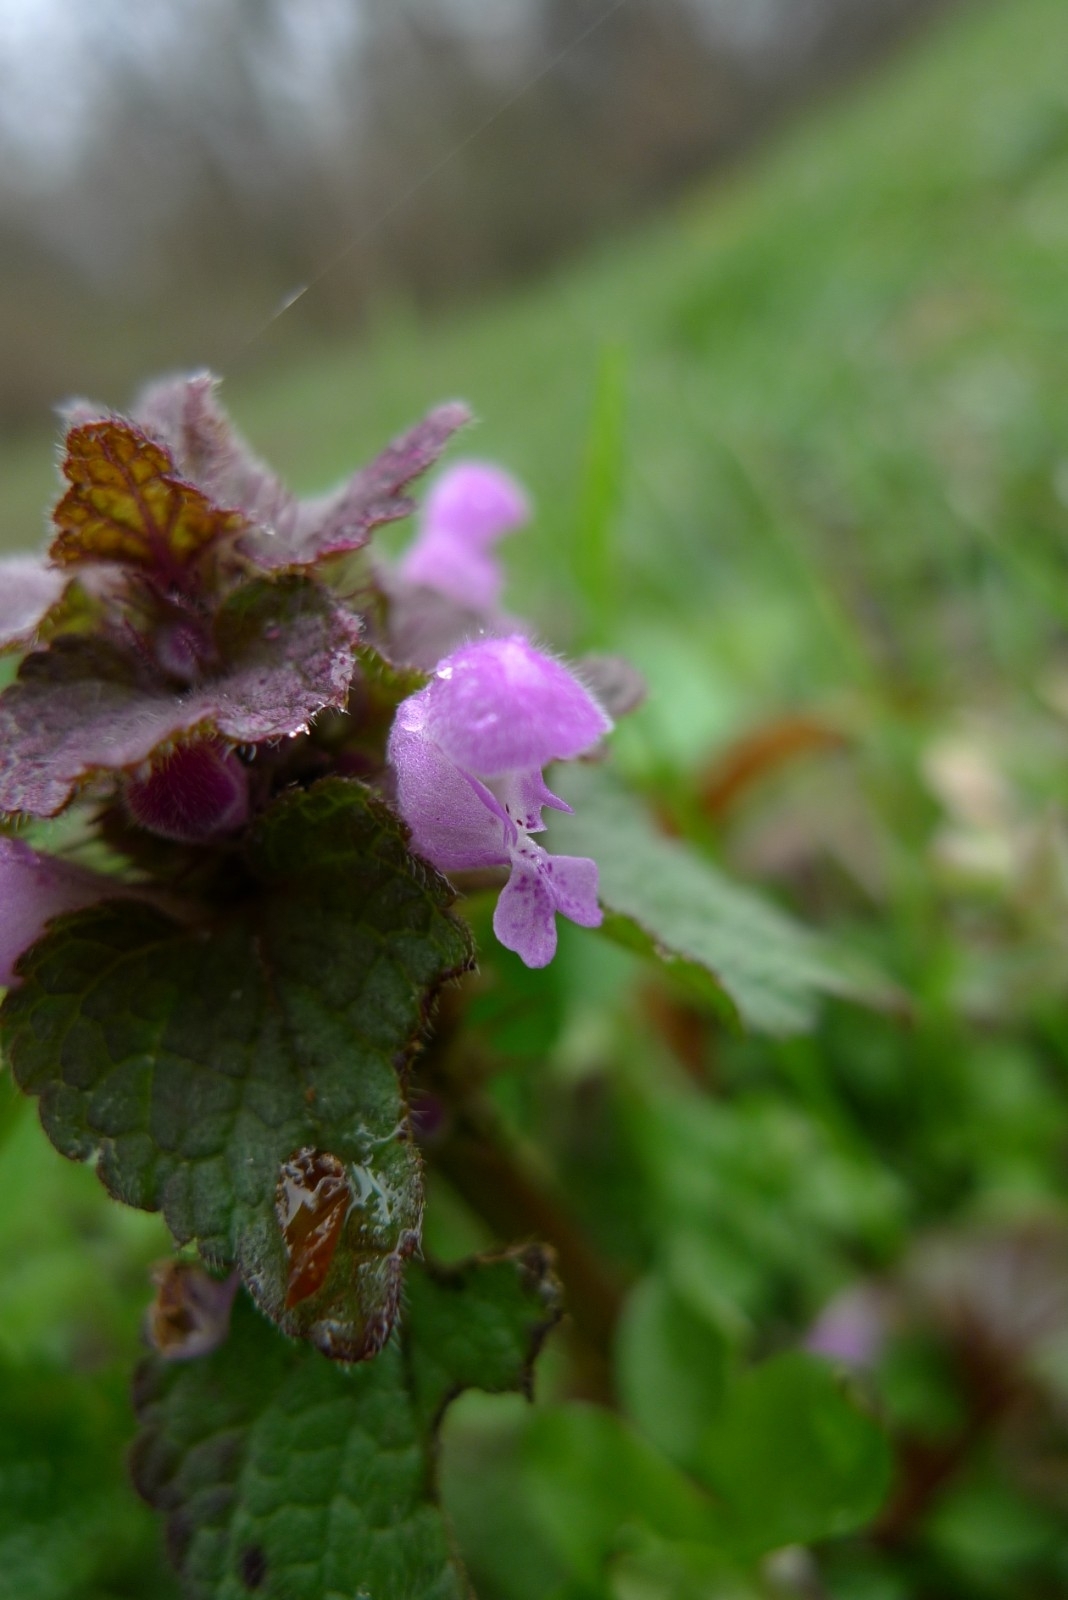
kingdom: Plantae
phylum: Tracheophyta
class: Magnoliopsida
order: Lamiales
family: Lamiaceae
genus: Lamium
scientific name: Lamium purpureum
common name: Red dead-nettle
